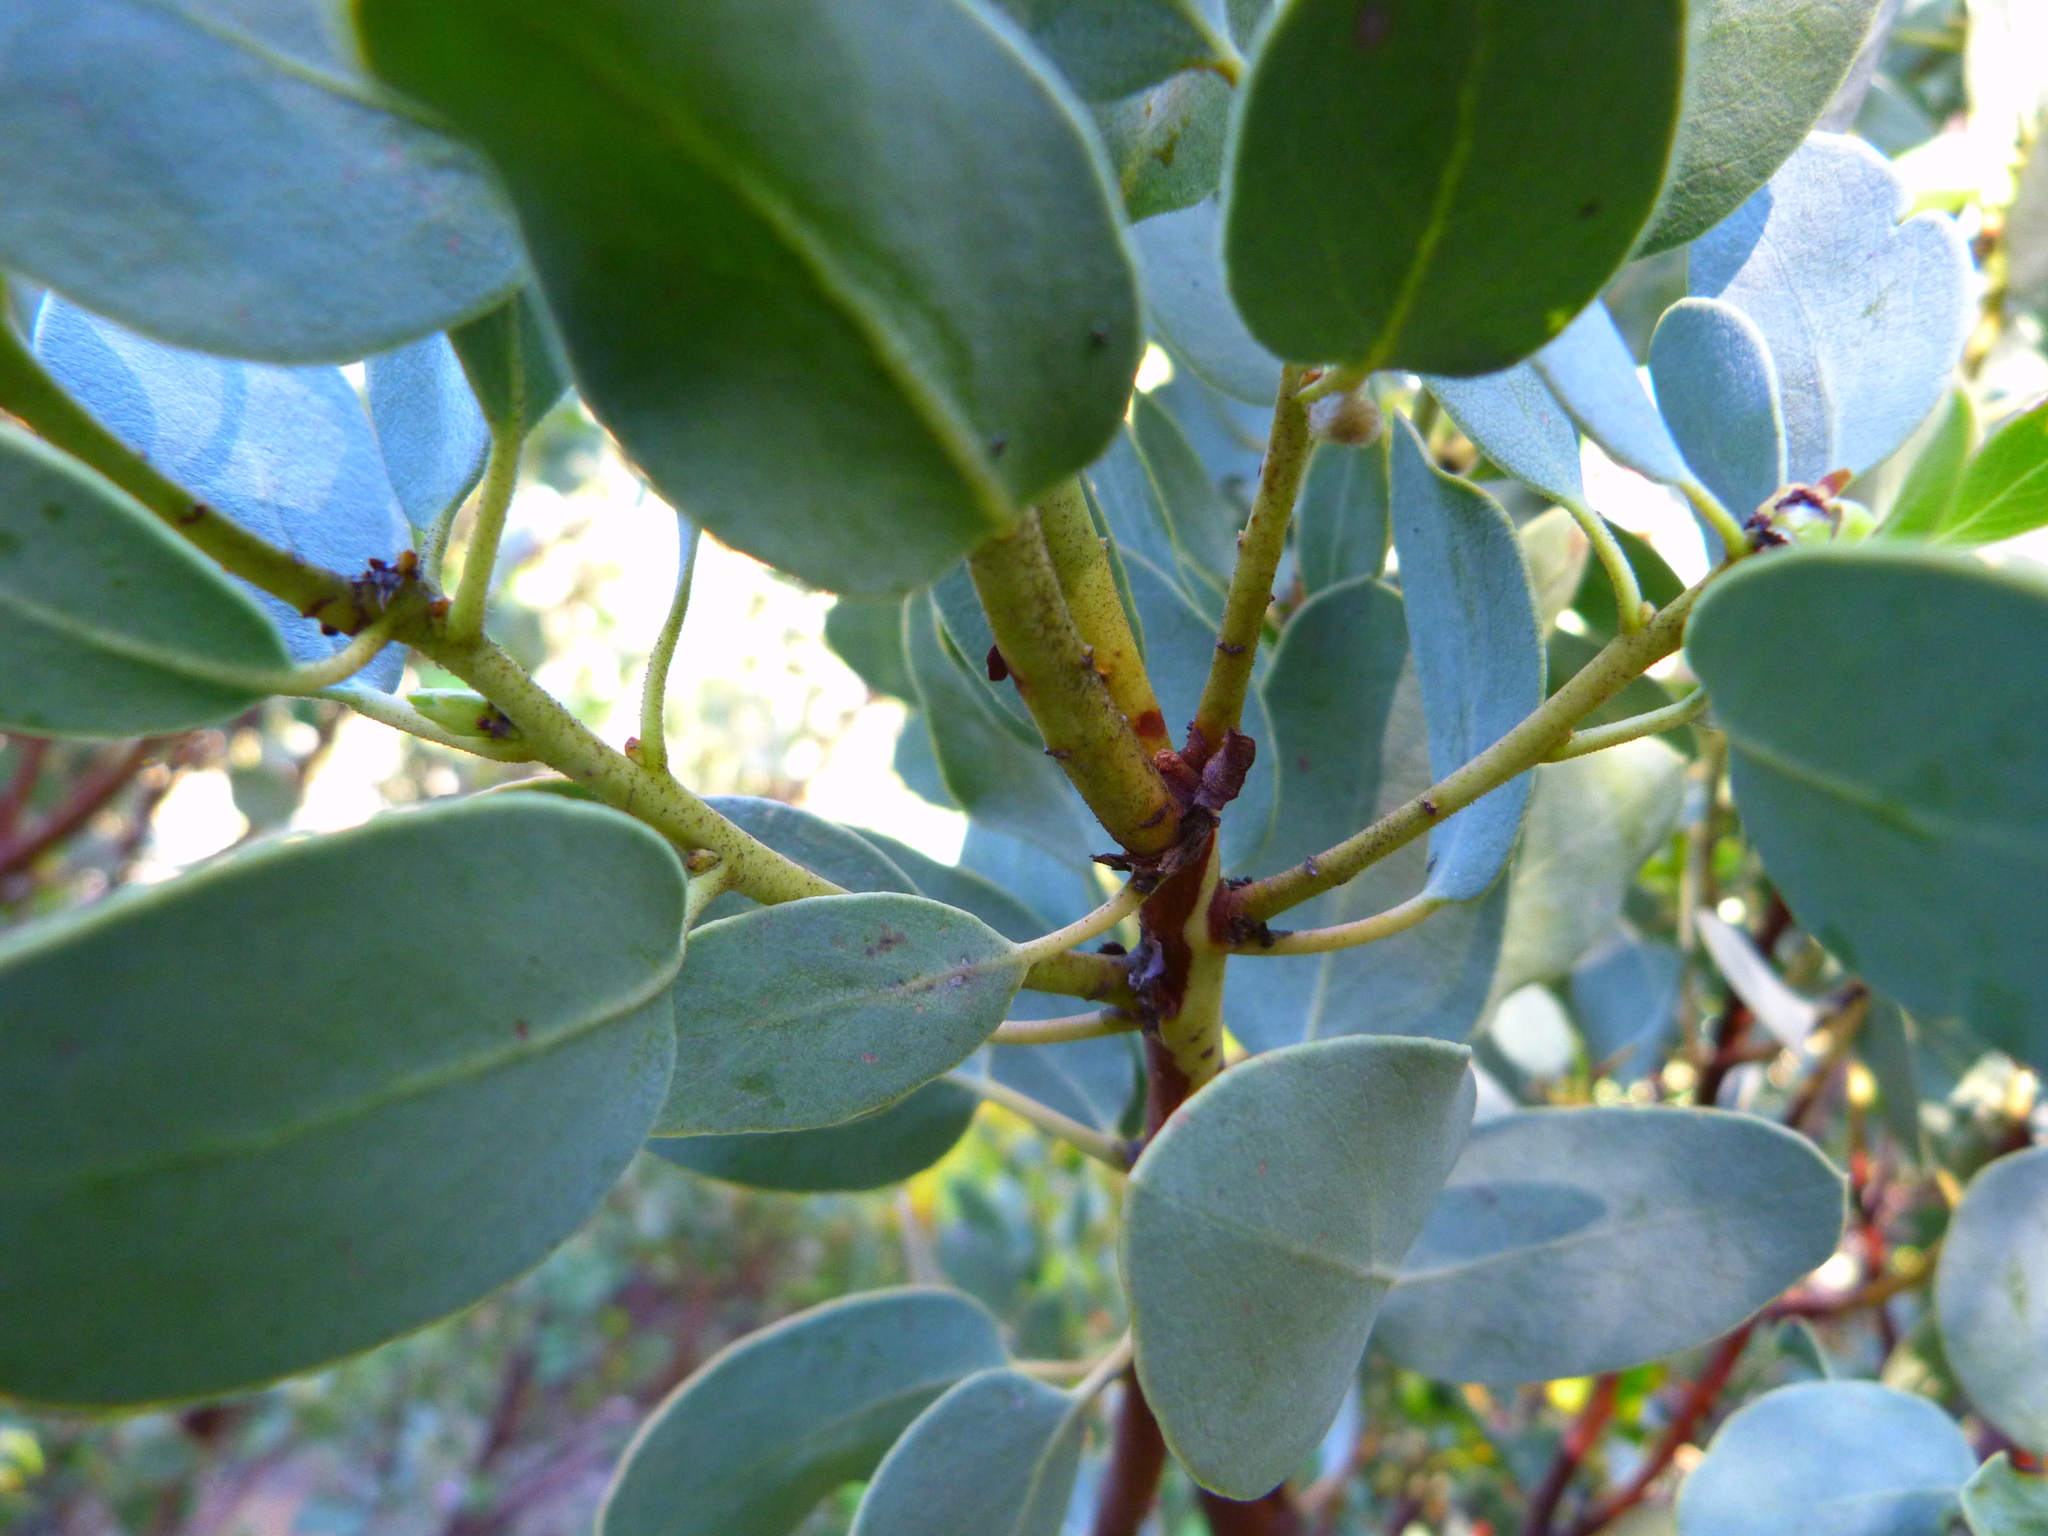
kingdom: Plantae
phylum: Tracheophyta
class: Magnoliopsida
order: Ericales
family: Ericaceae
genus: Arctostaphylos
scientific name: Arctostaphylos glauca
